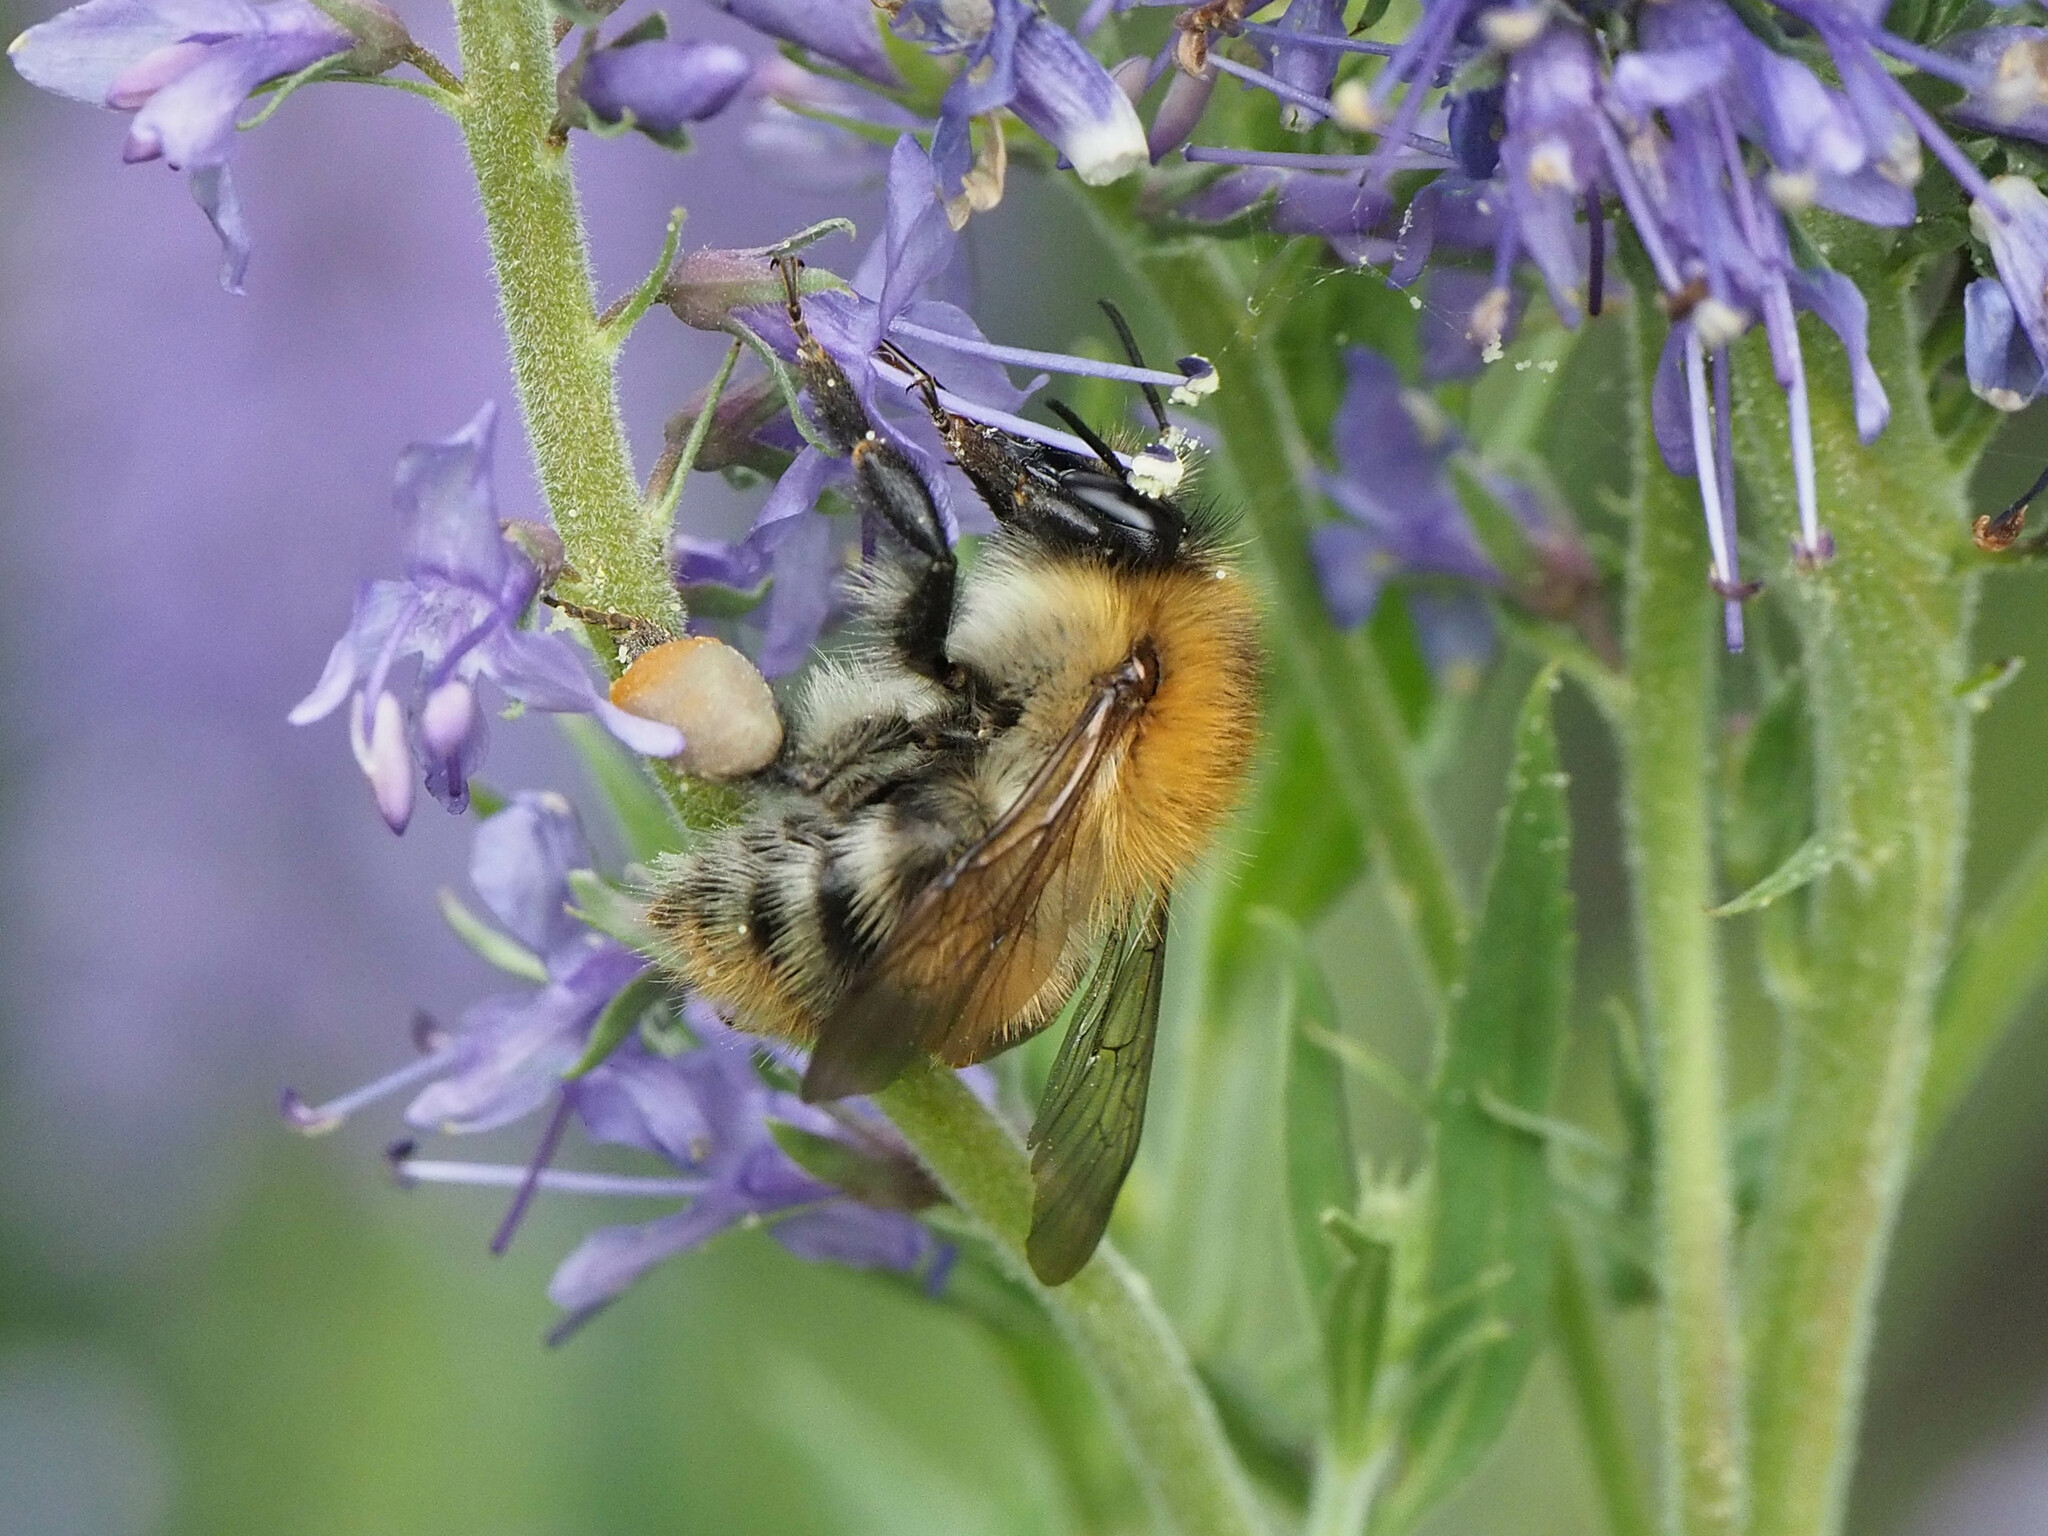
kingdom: Animalia
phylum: Arthropoda
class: Insecta
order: Hymenoptera
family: Apidae
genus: Bombus
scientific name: Bombus pascuorum
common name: Common carder bee
